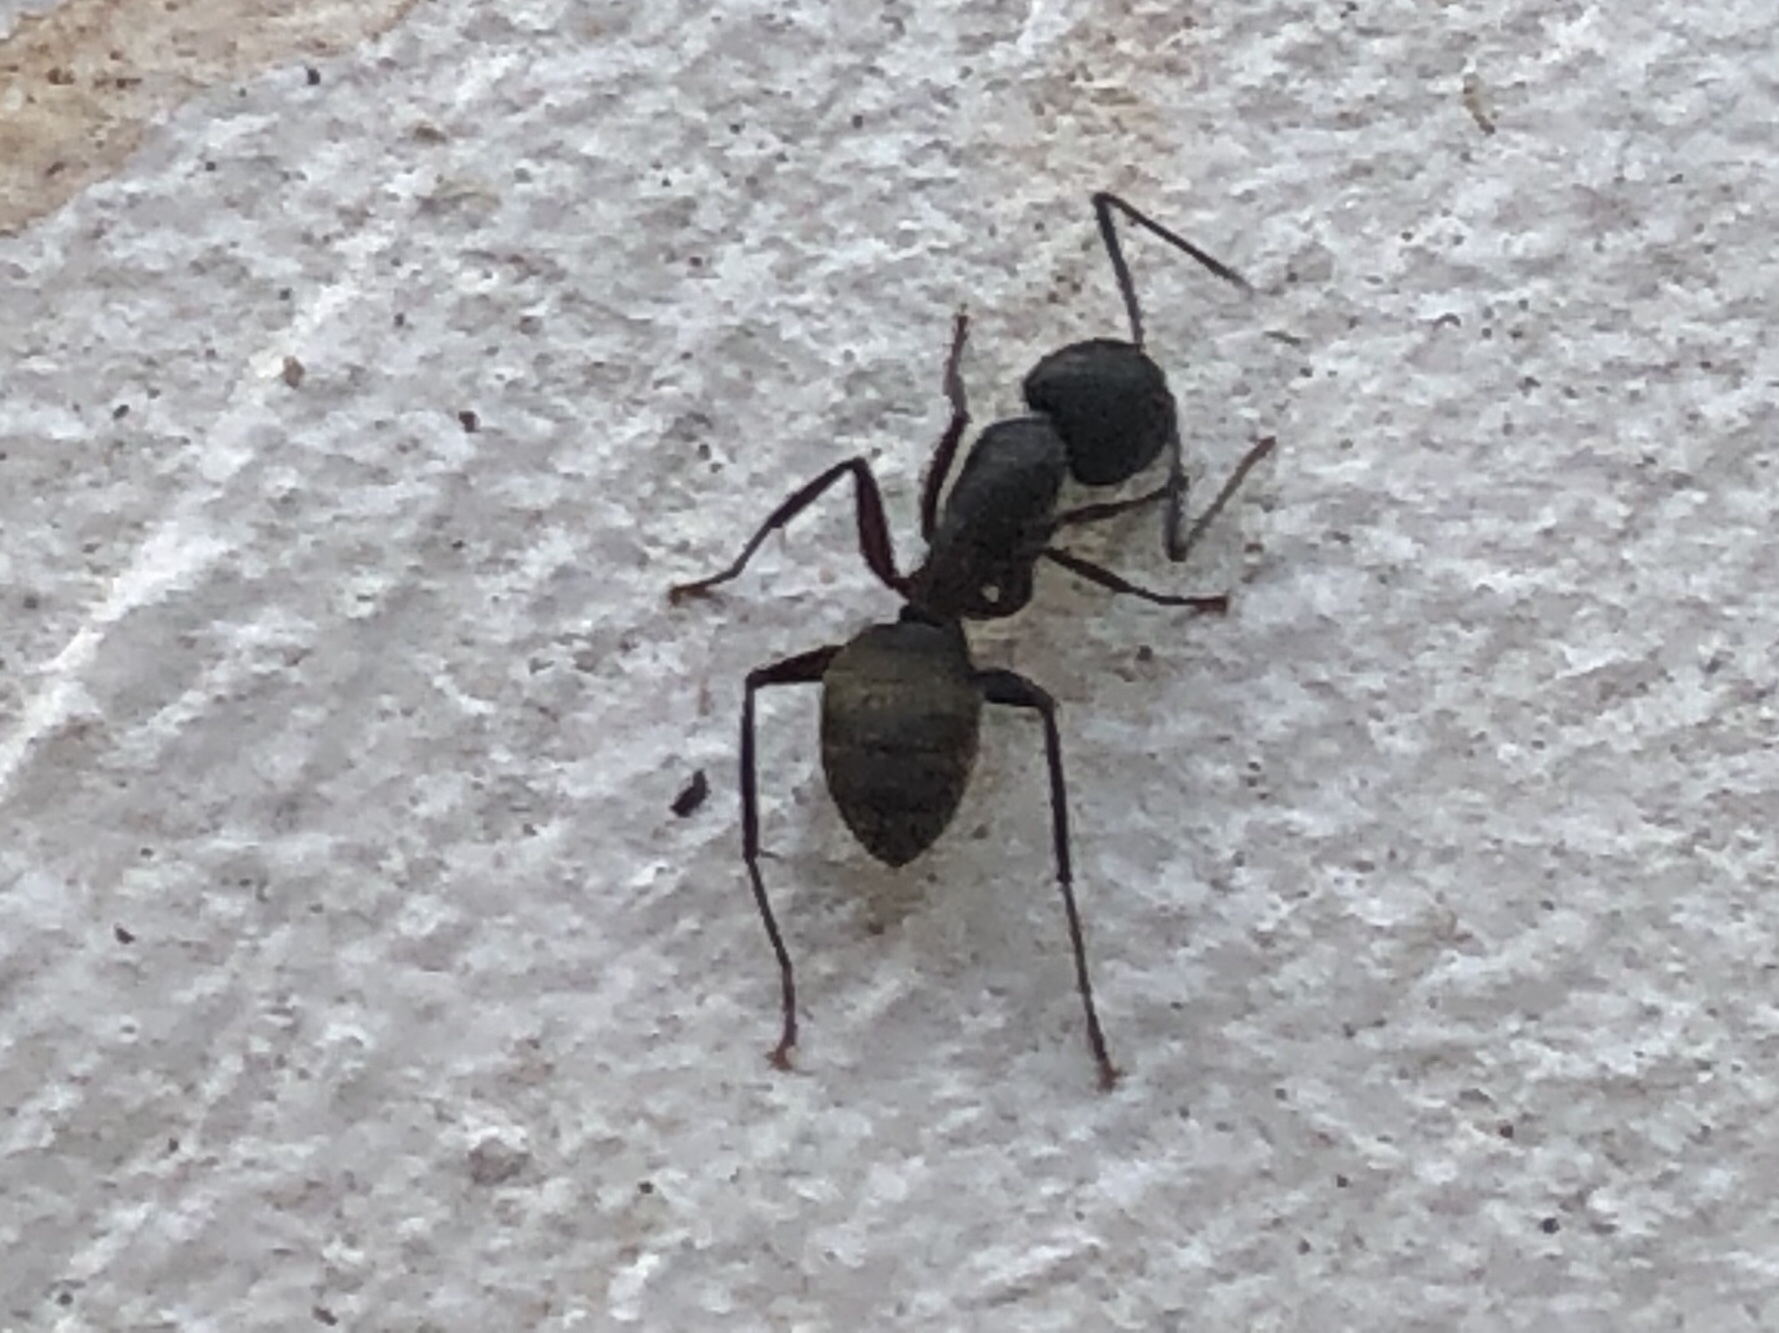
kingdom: Animalia
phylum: Arthropoda
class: Insecta
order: Hymenoptera
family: Formicidae
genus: Camponotus
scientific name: Camponotus pennsylvanicus
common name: Black carpenter ant
